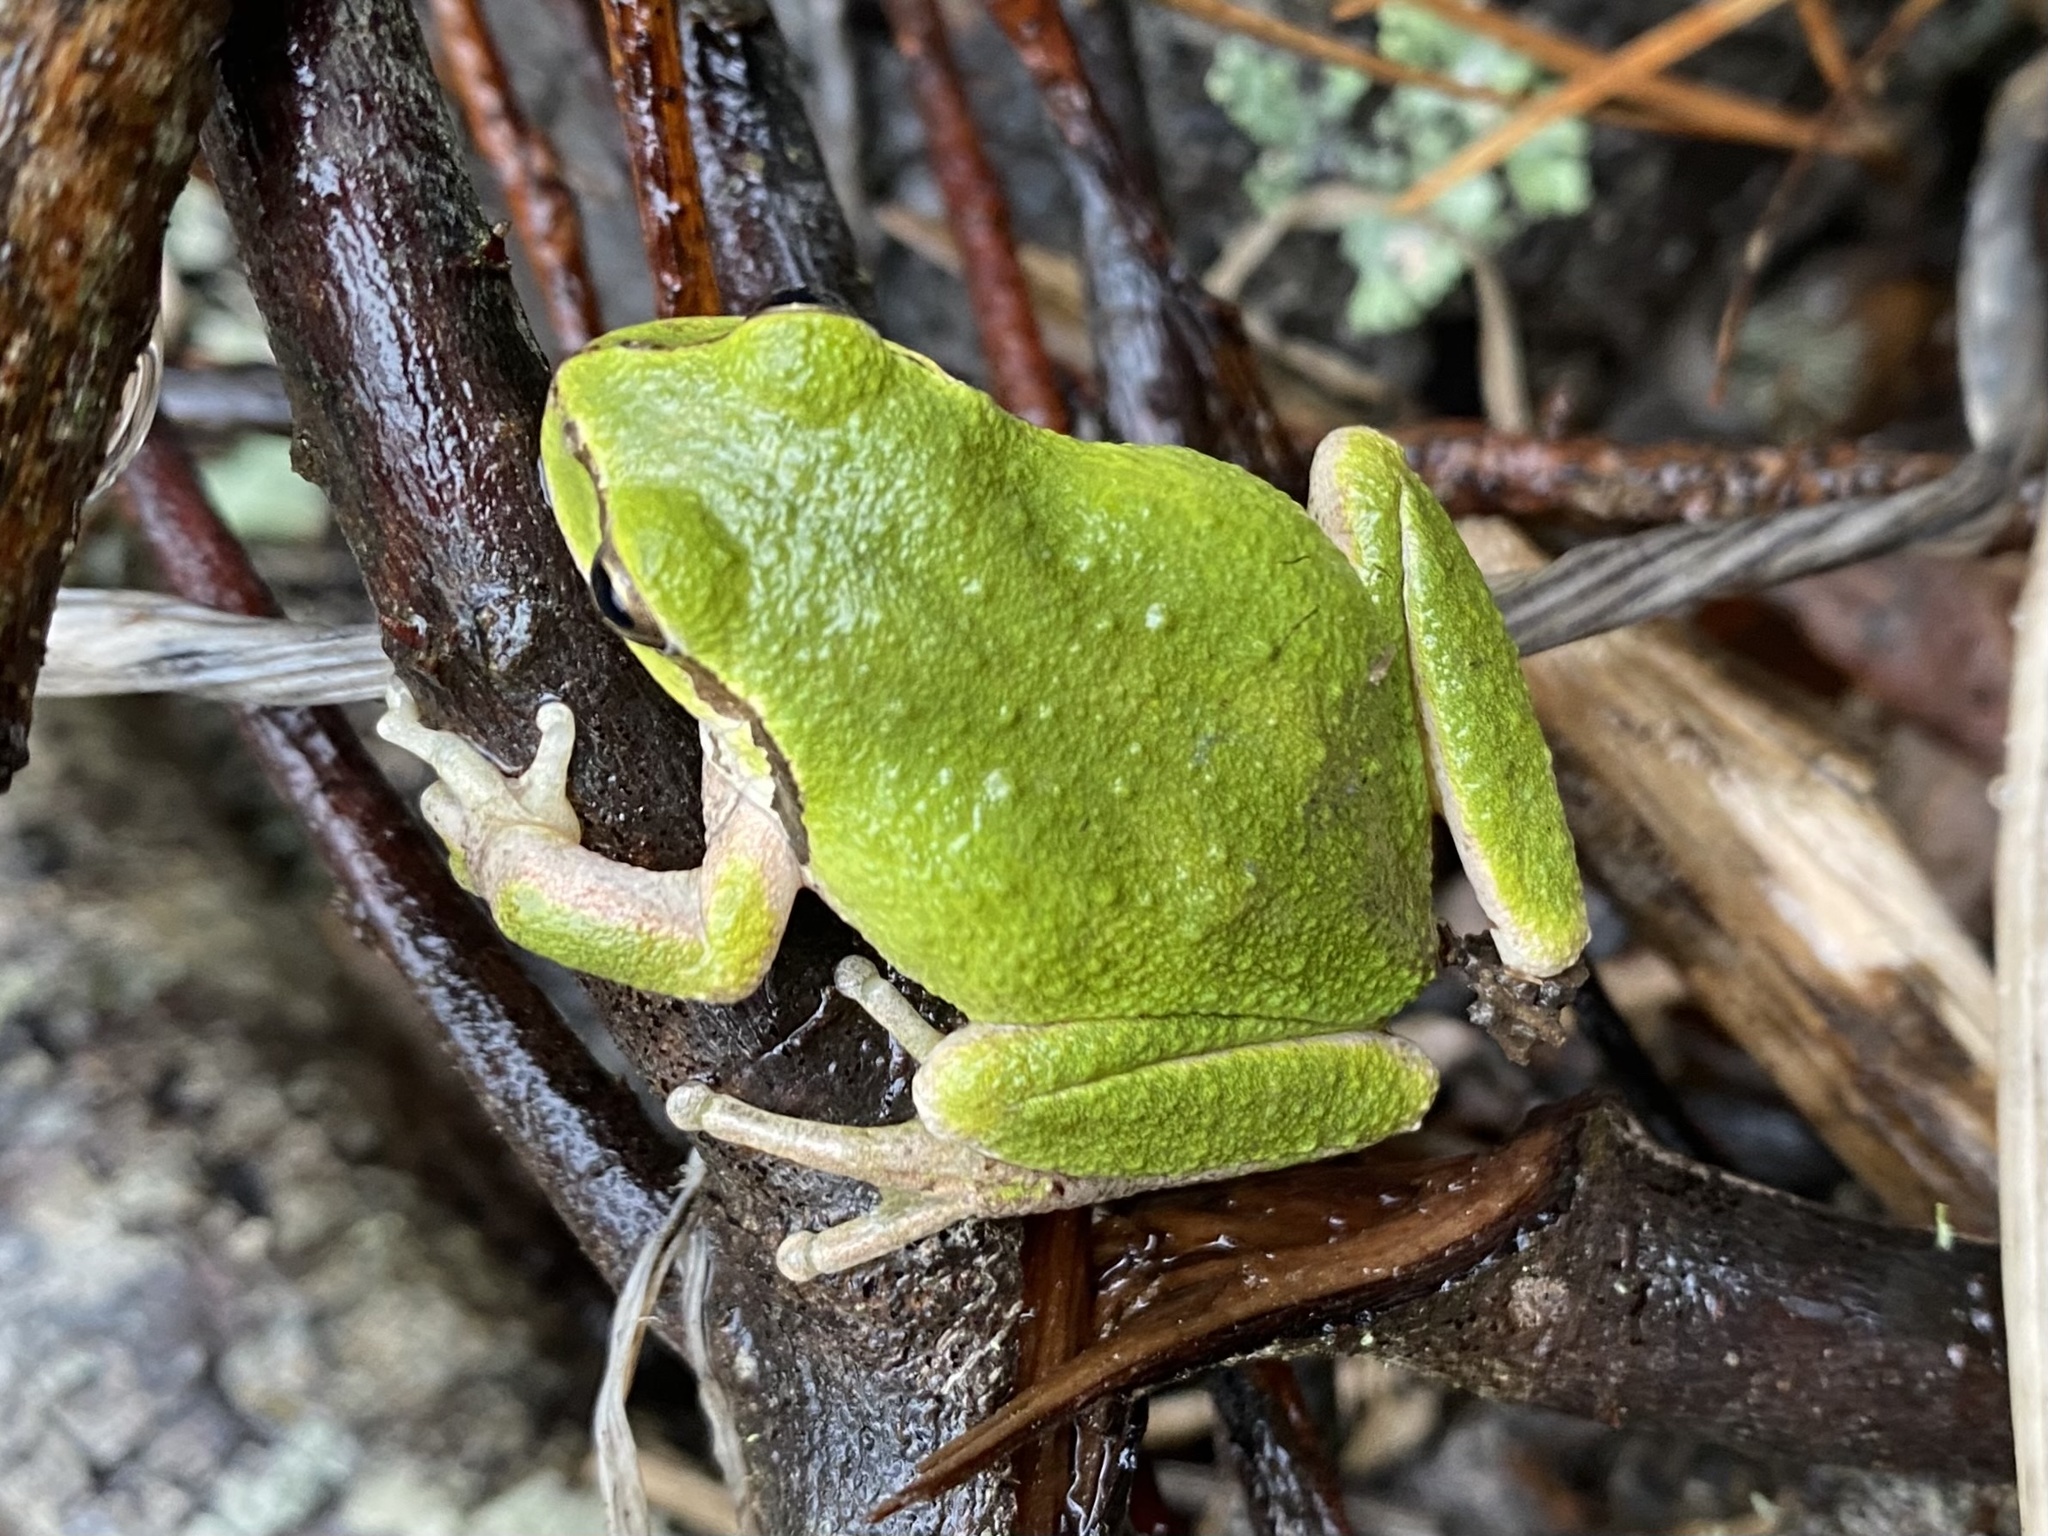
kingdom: Animalia
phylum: Chordata
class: Amphibia
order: Anura
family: Hylidae
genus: Pseudacris
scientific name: Pseudacris regilla
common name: Pacific chorus frog
